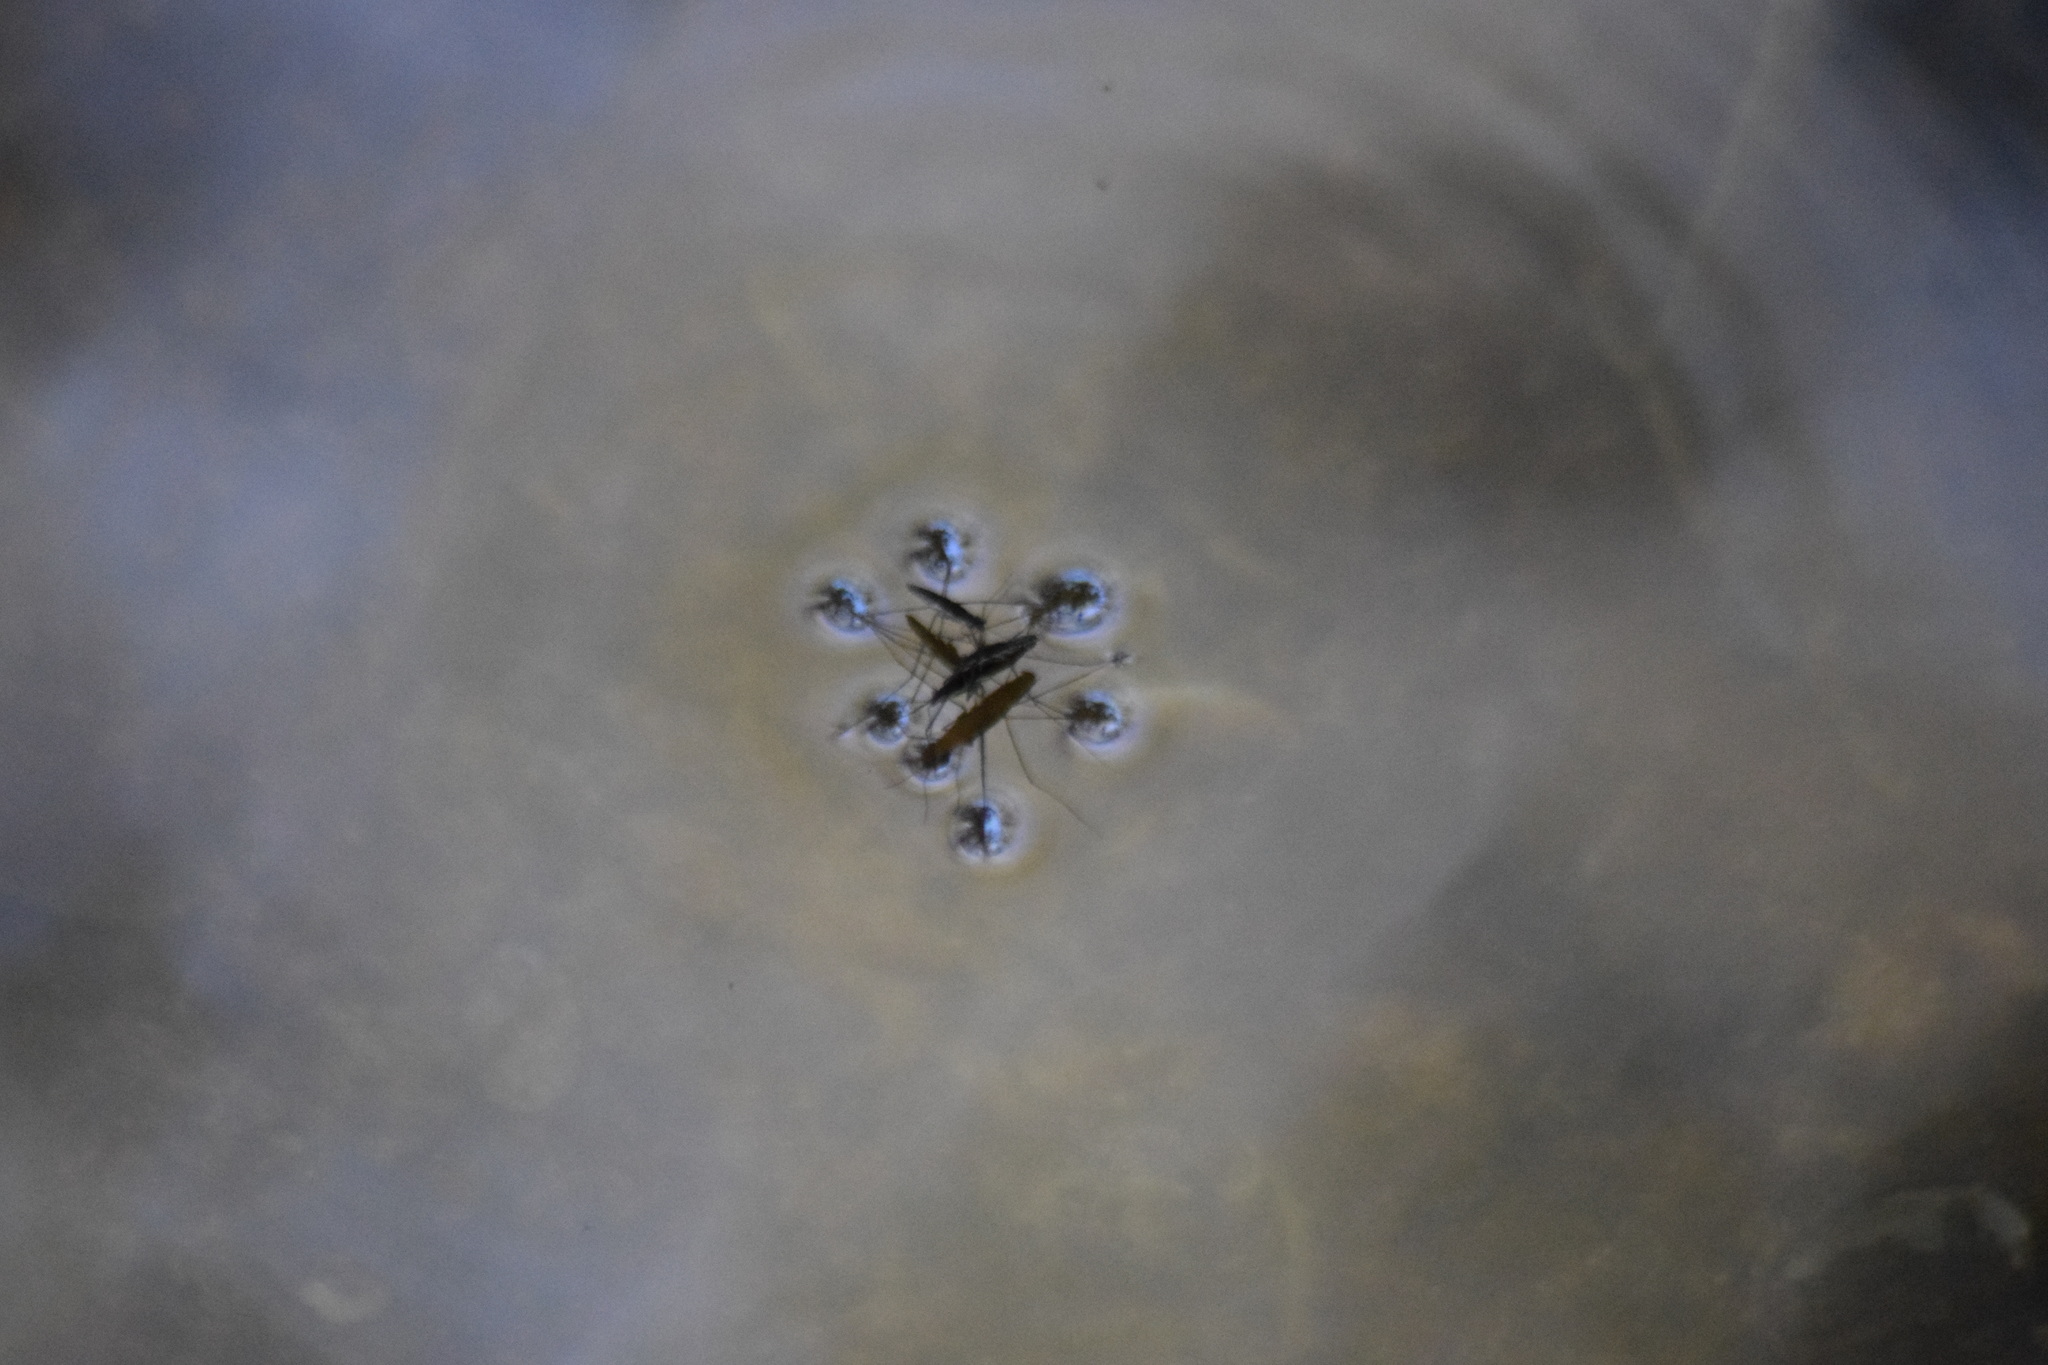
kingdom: Animalia
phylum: Arthropoda
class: Insecta
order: Hemiptera
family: Gerridae
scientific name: Gerridae
